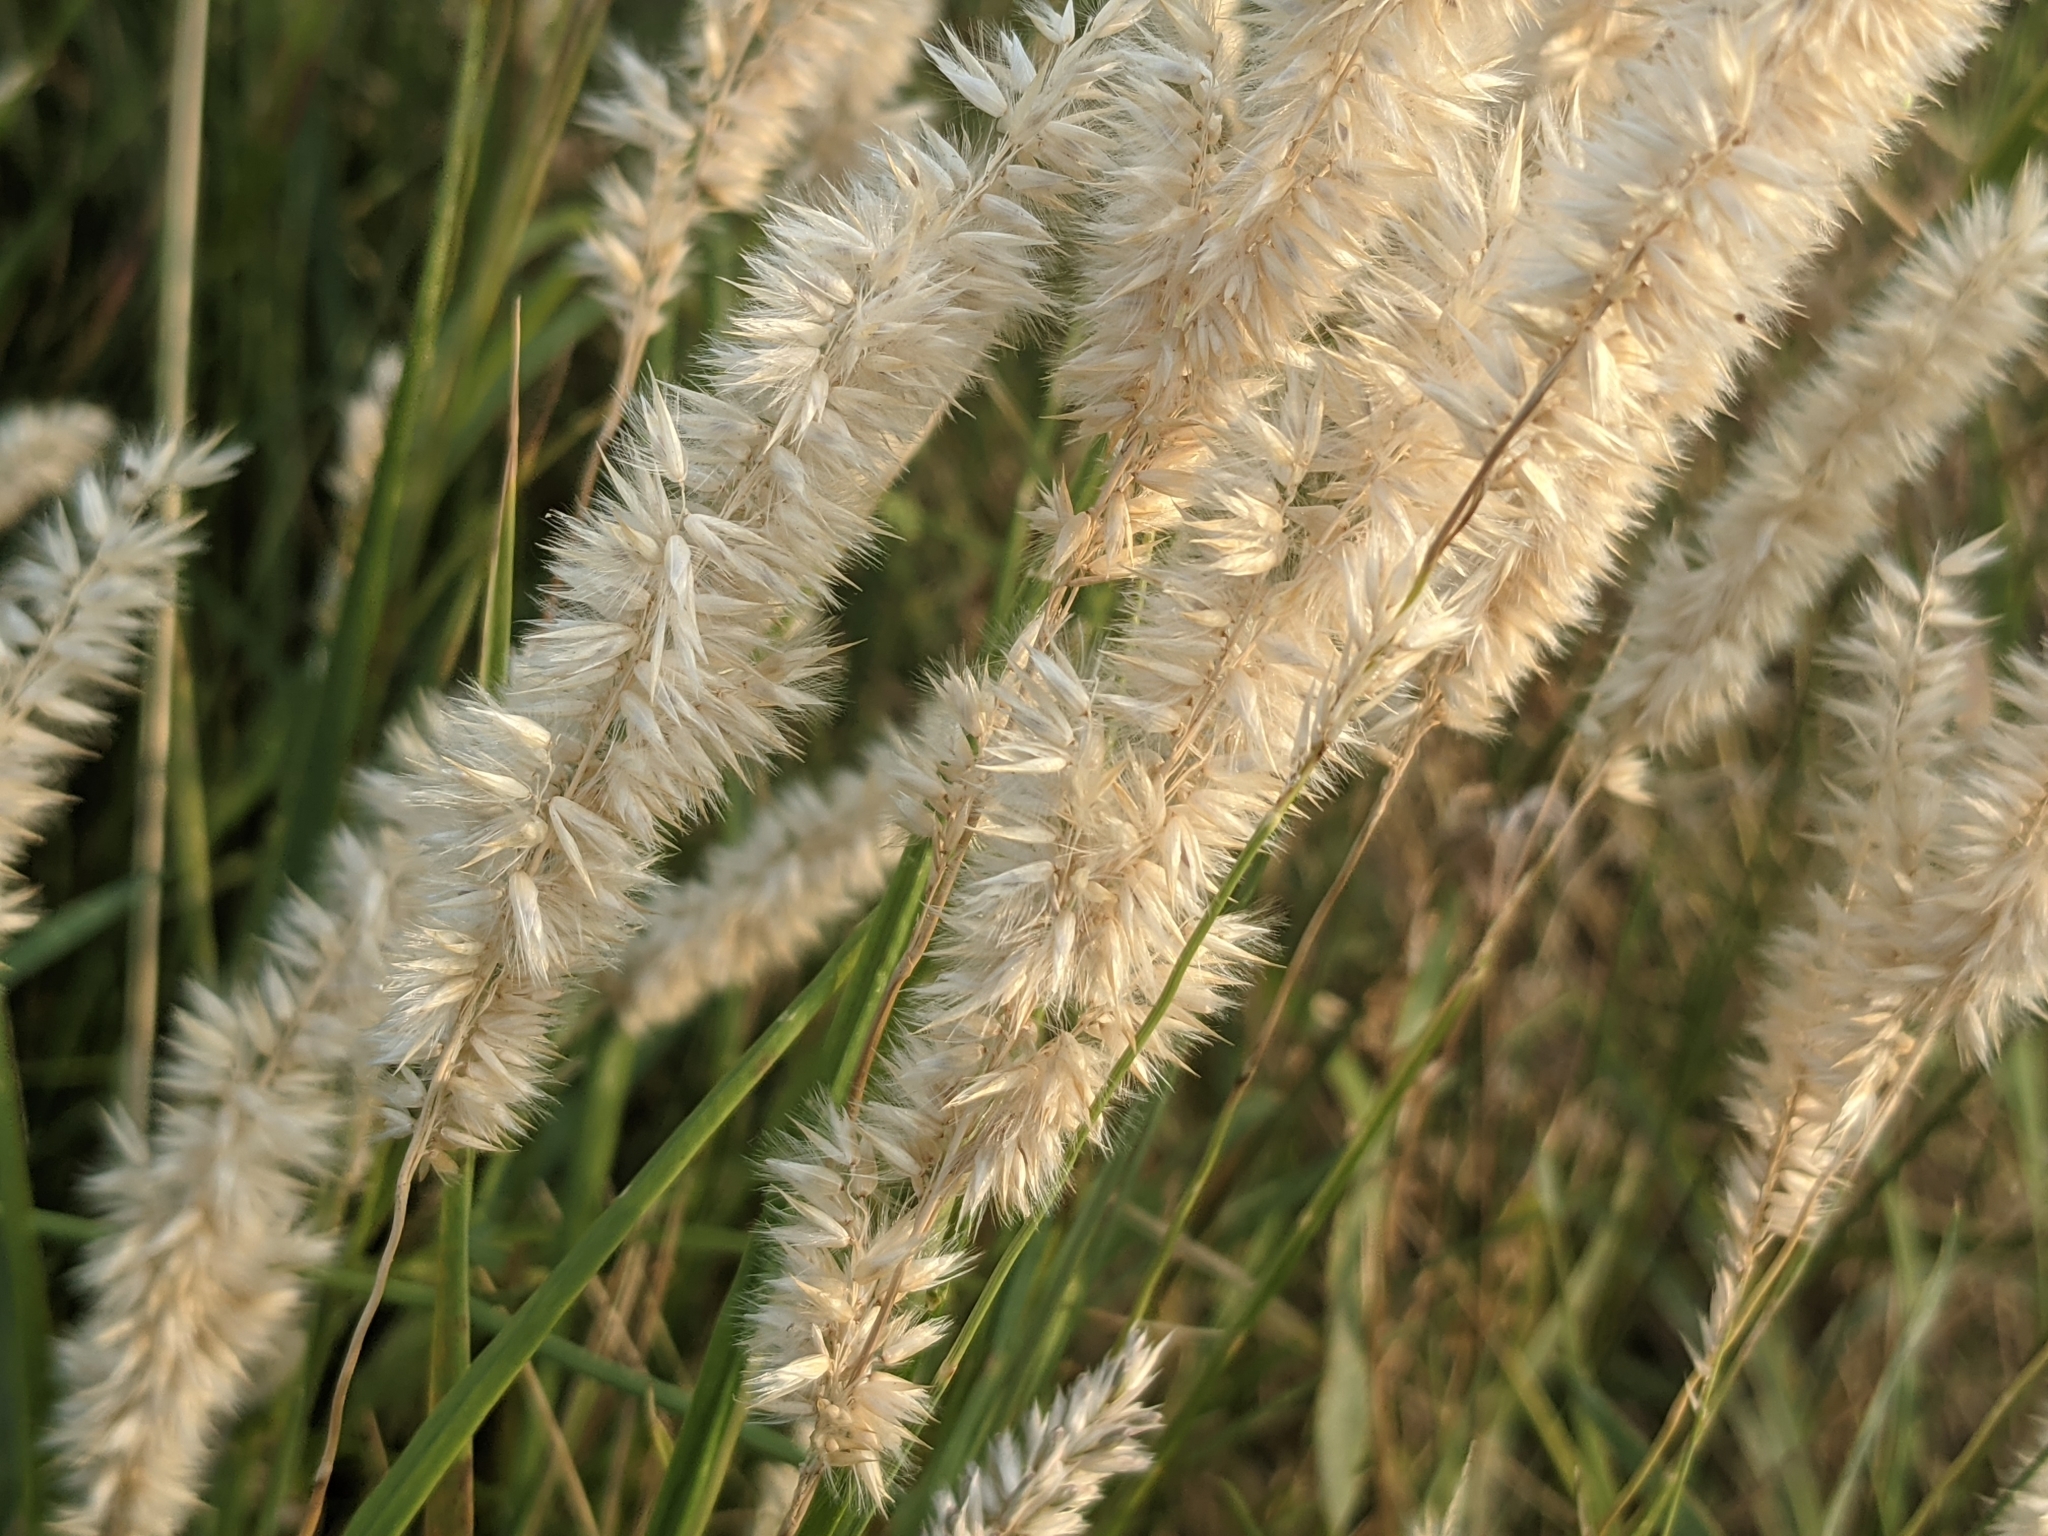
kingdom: Plantae
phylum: Tracheophyta
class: Liliopsida
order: Poales
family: Poaceae
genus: Melica
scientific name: Melica transsilvanica
